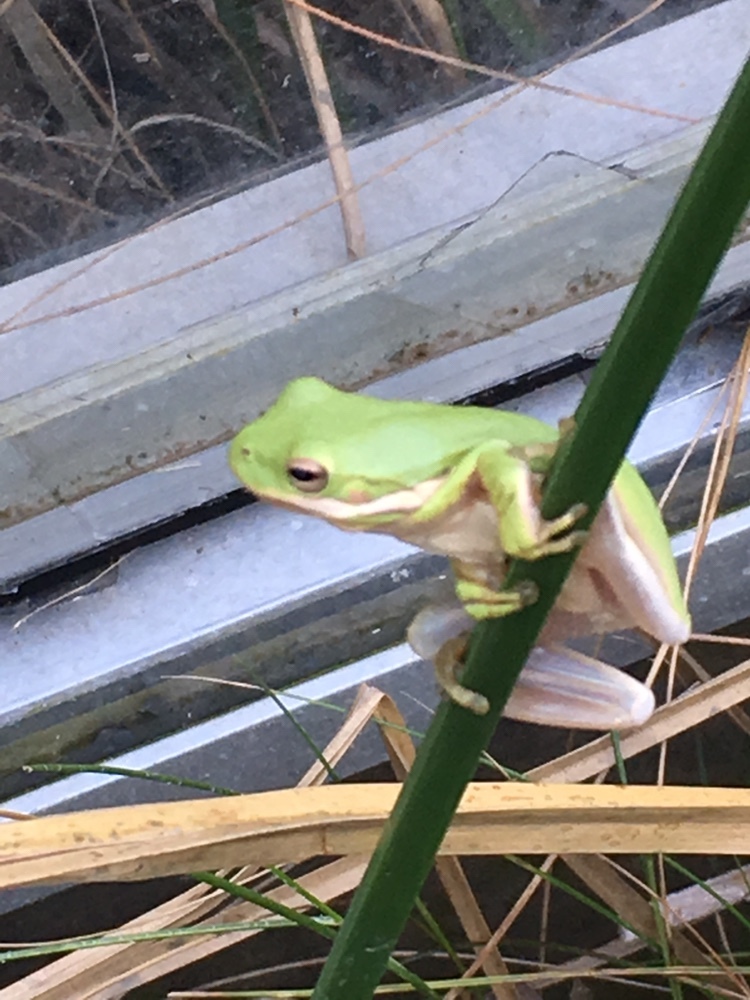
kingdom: Animalia
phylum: Chordata
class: Amphibia
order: Anura
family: Hylidae
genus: Dryophytes
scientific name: Dryophytes cinereus
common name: Green treefrog
